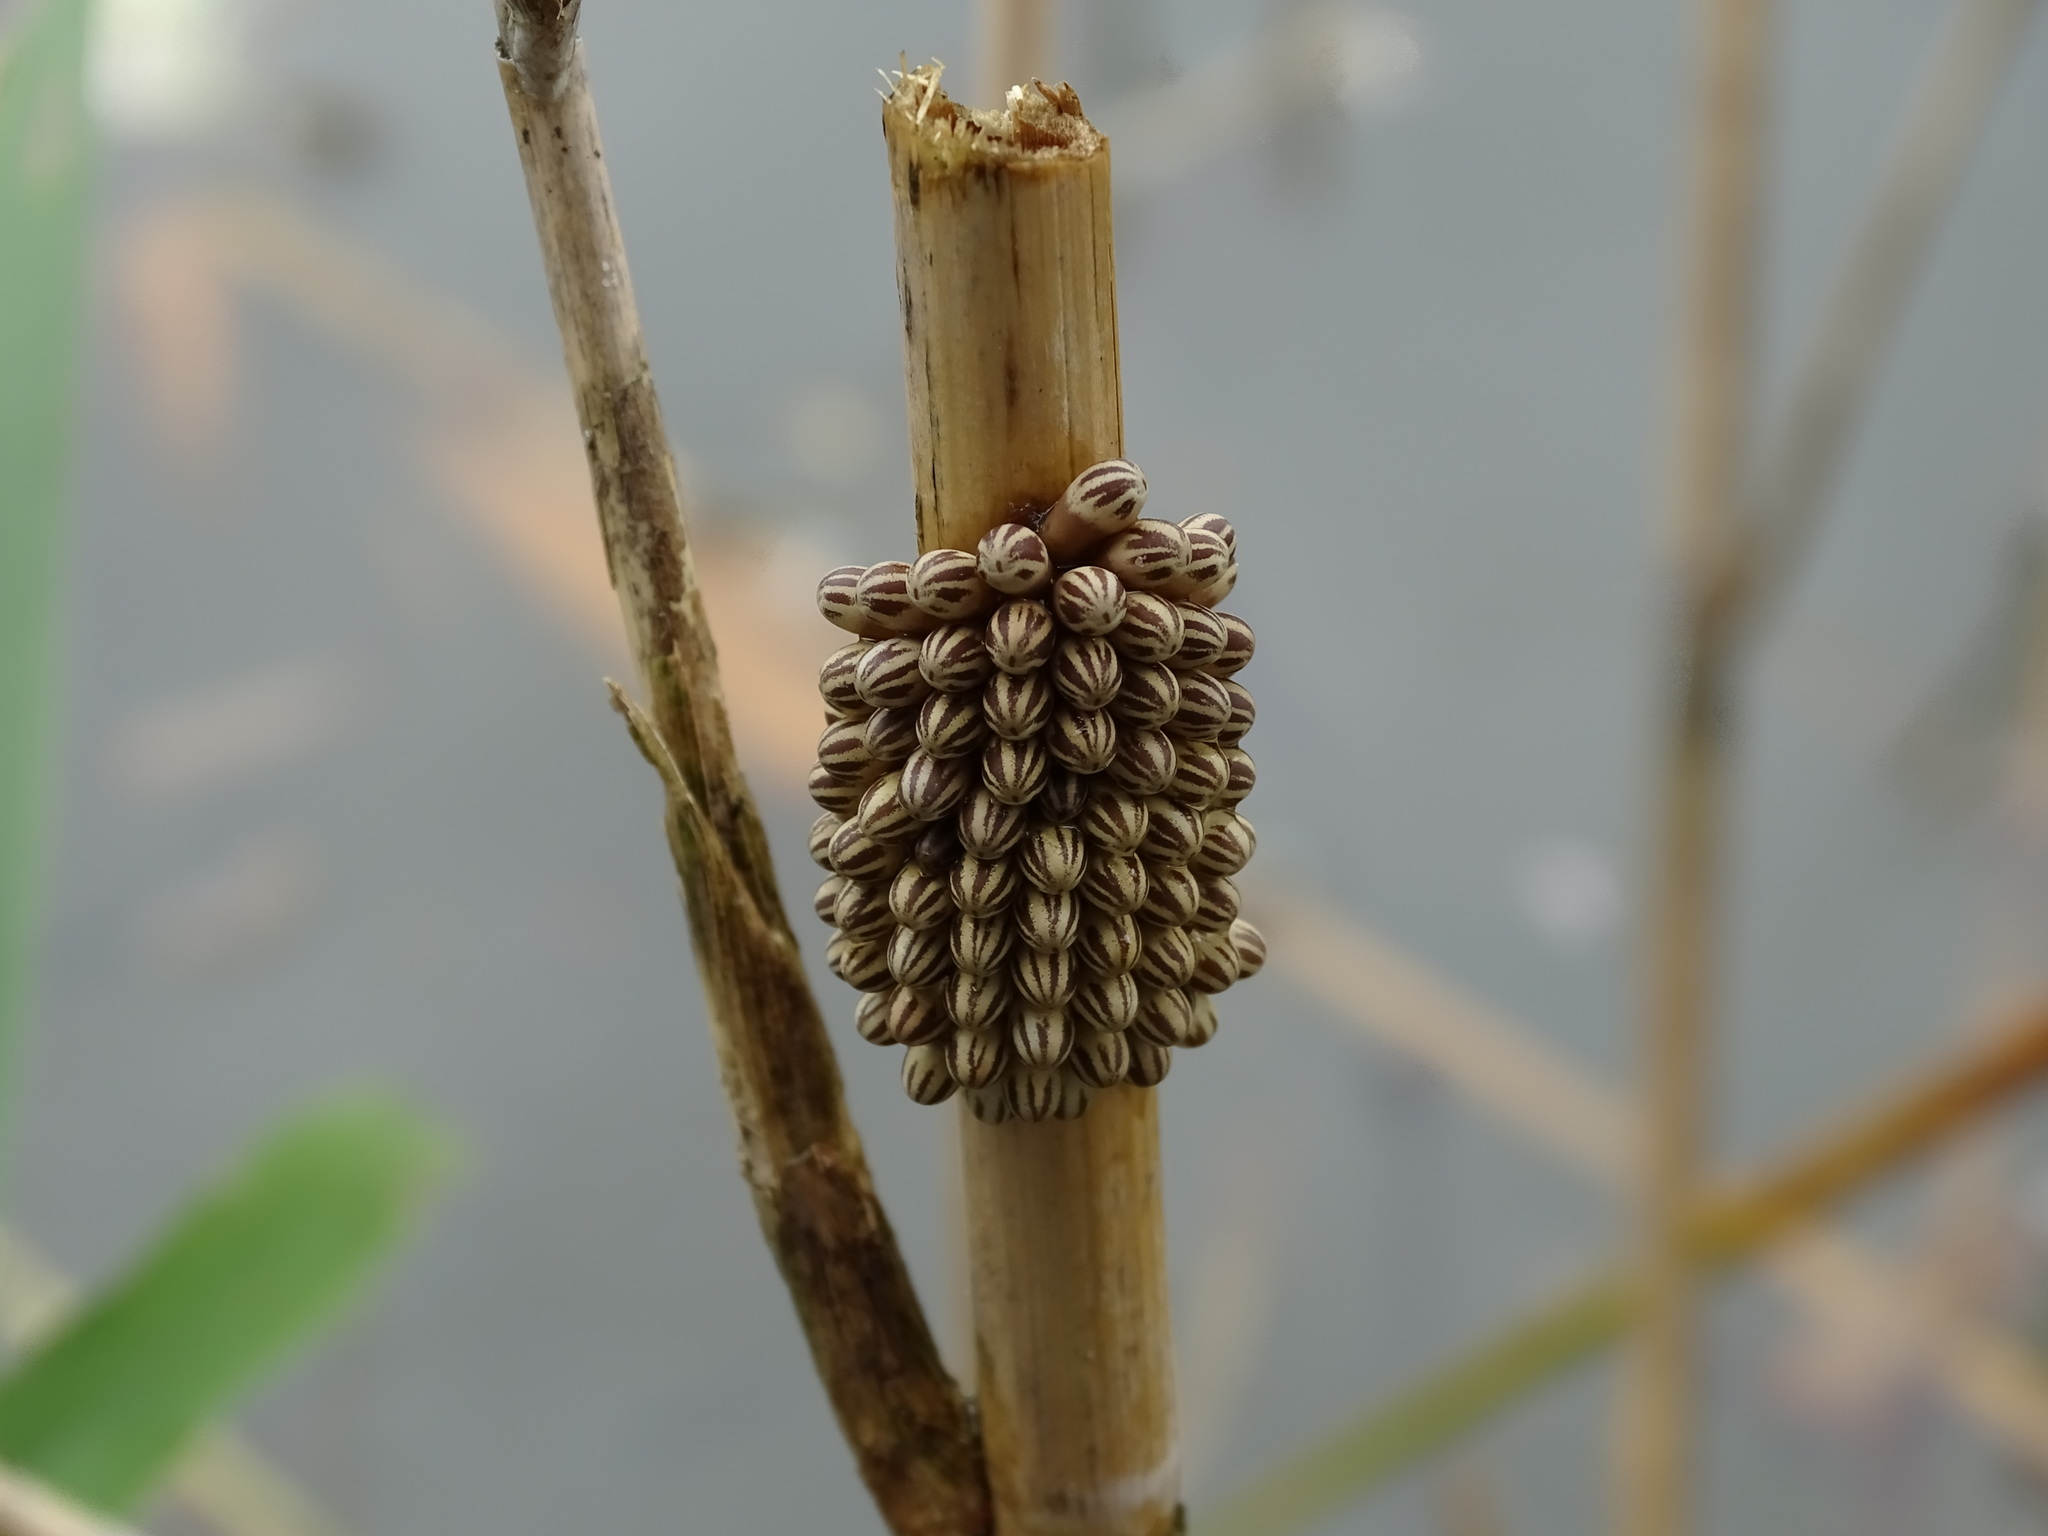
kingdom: Animalia
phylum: Arthropoda
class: Insecta
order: Hemiptera
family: Belostomatidae
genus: Lethocerus
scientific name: Lethocerus indicus
